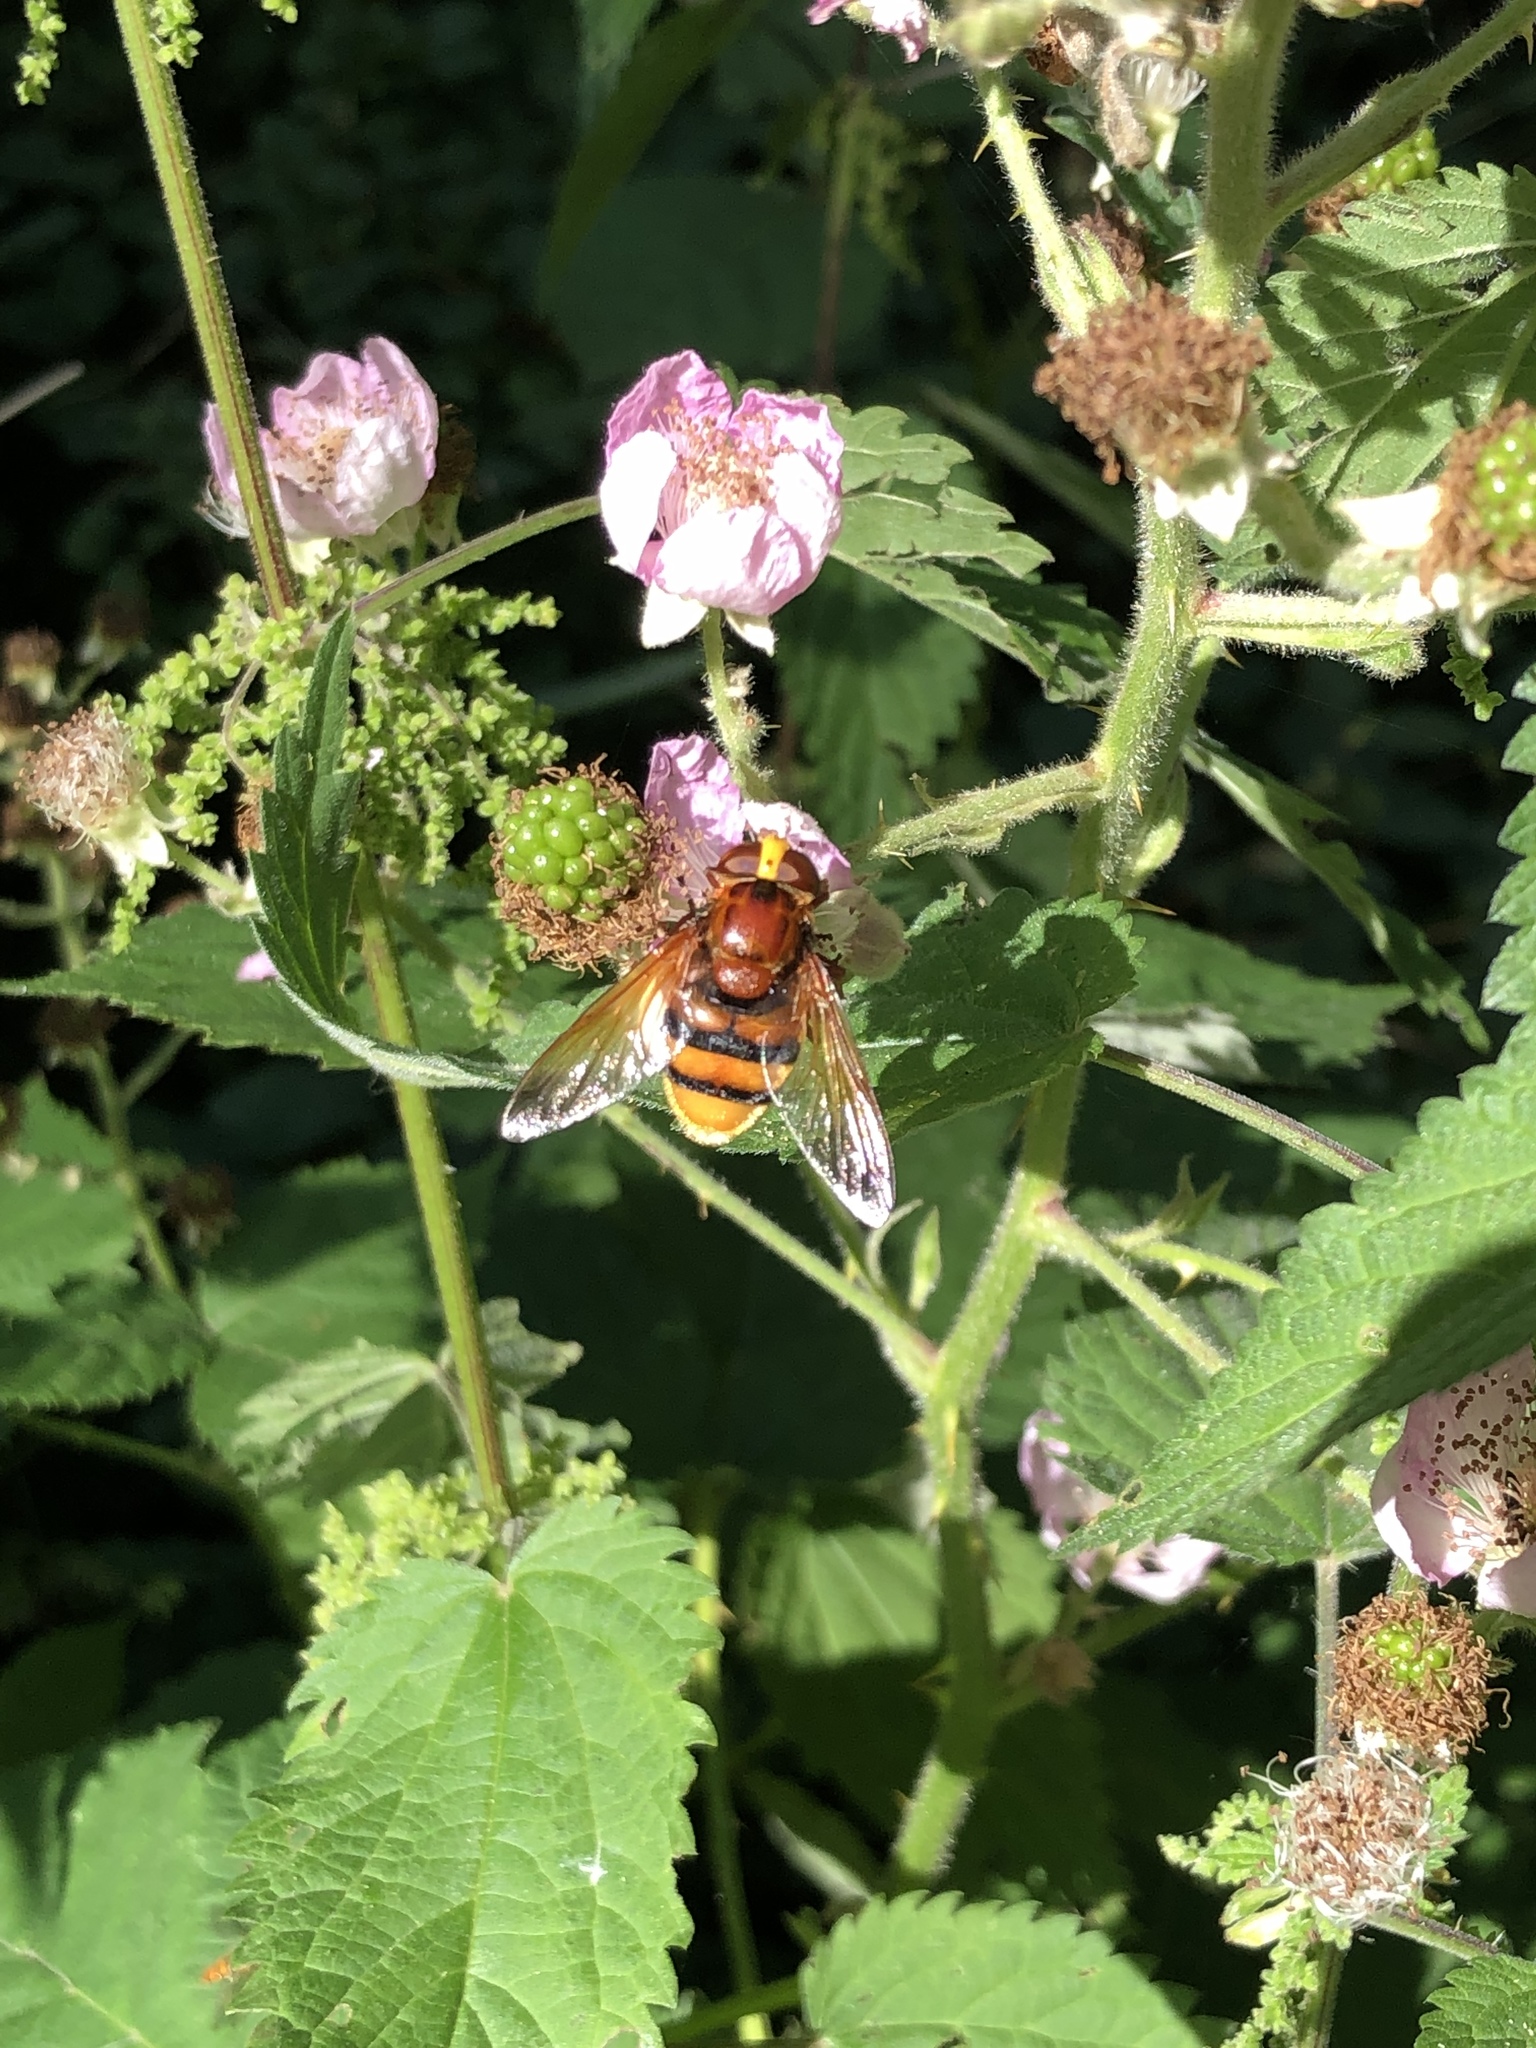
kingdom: Animalia
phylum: Arthropoda
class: Insecta
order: Diptera
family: Syrphidae
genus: Volucella
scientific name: Volucella zonaria
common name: Hornet hoverfly
